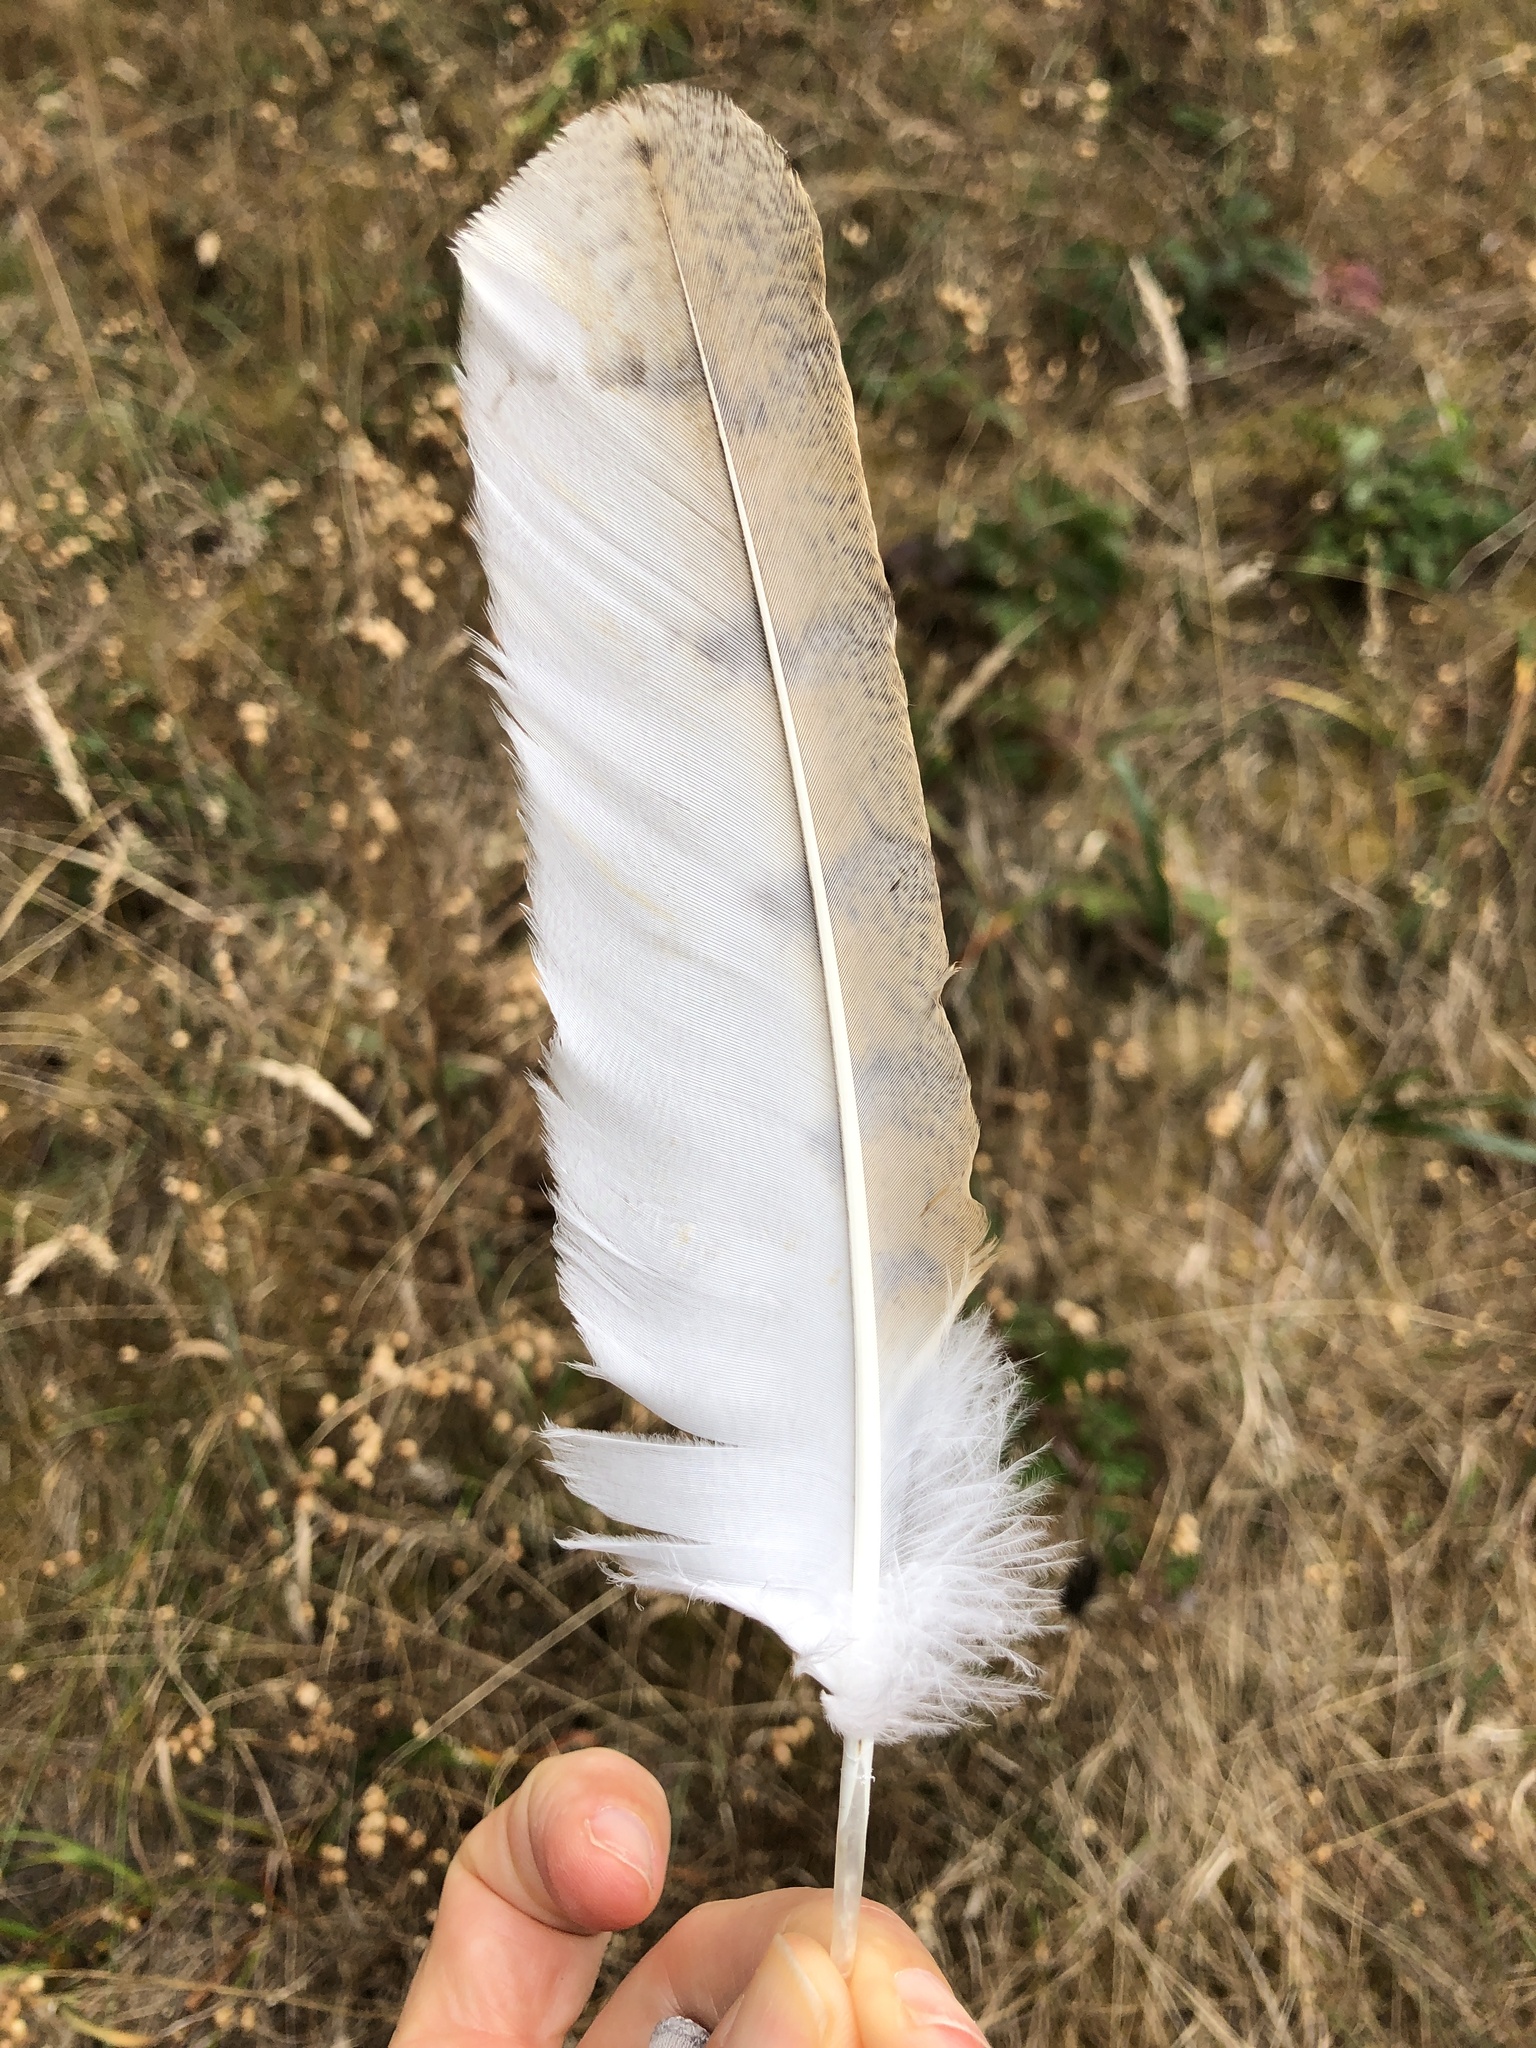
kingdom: Animalia
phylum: Chordata
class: Aves
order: Strigiformes
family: Tytonidae
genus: Tyto
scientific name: Tyto alba
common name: Barn owl
